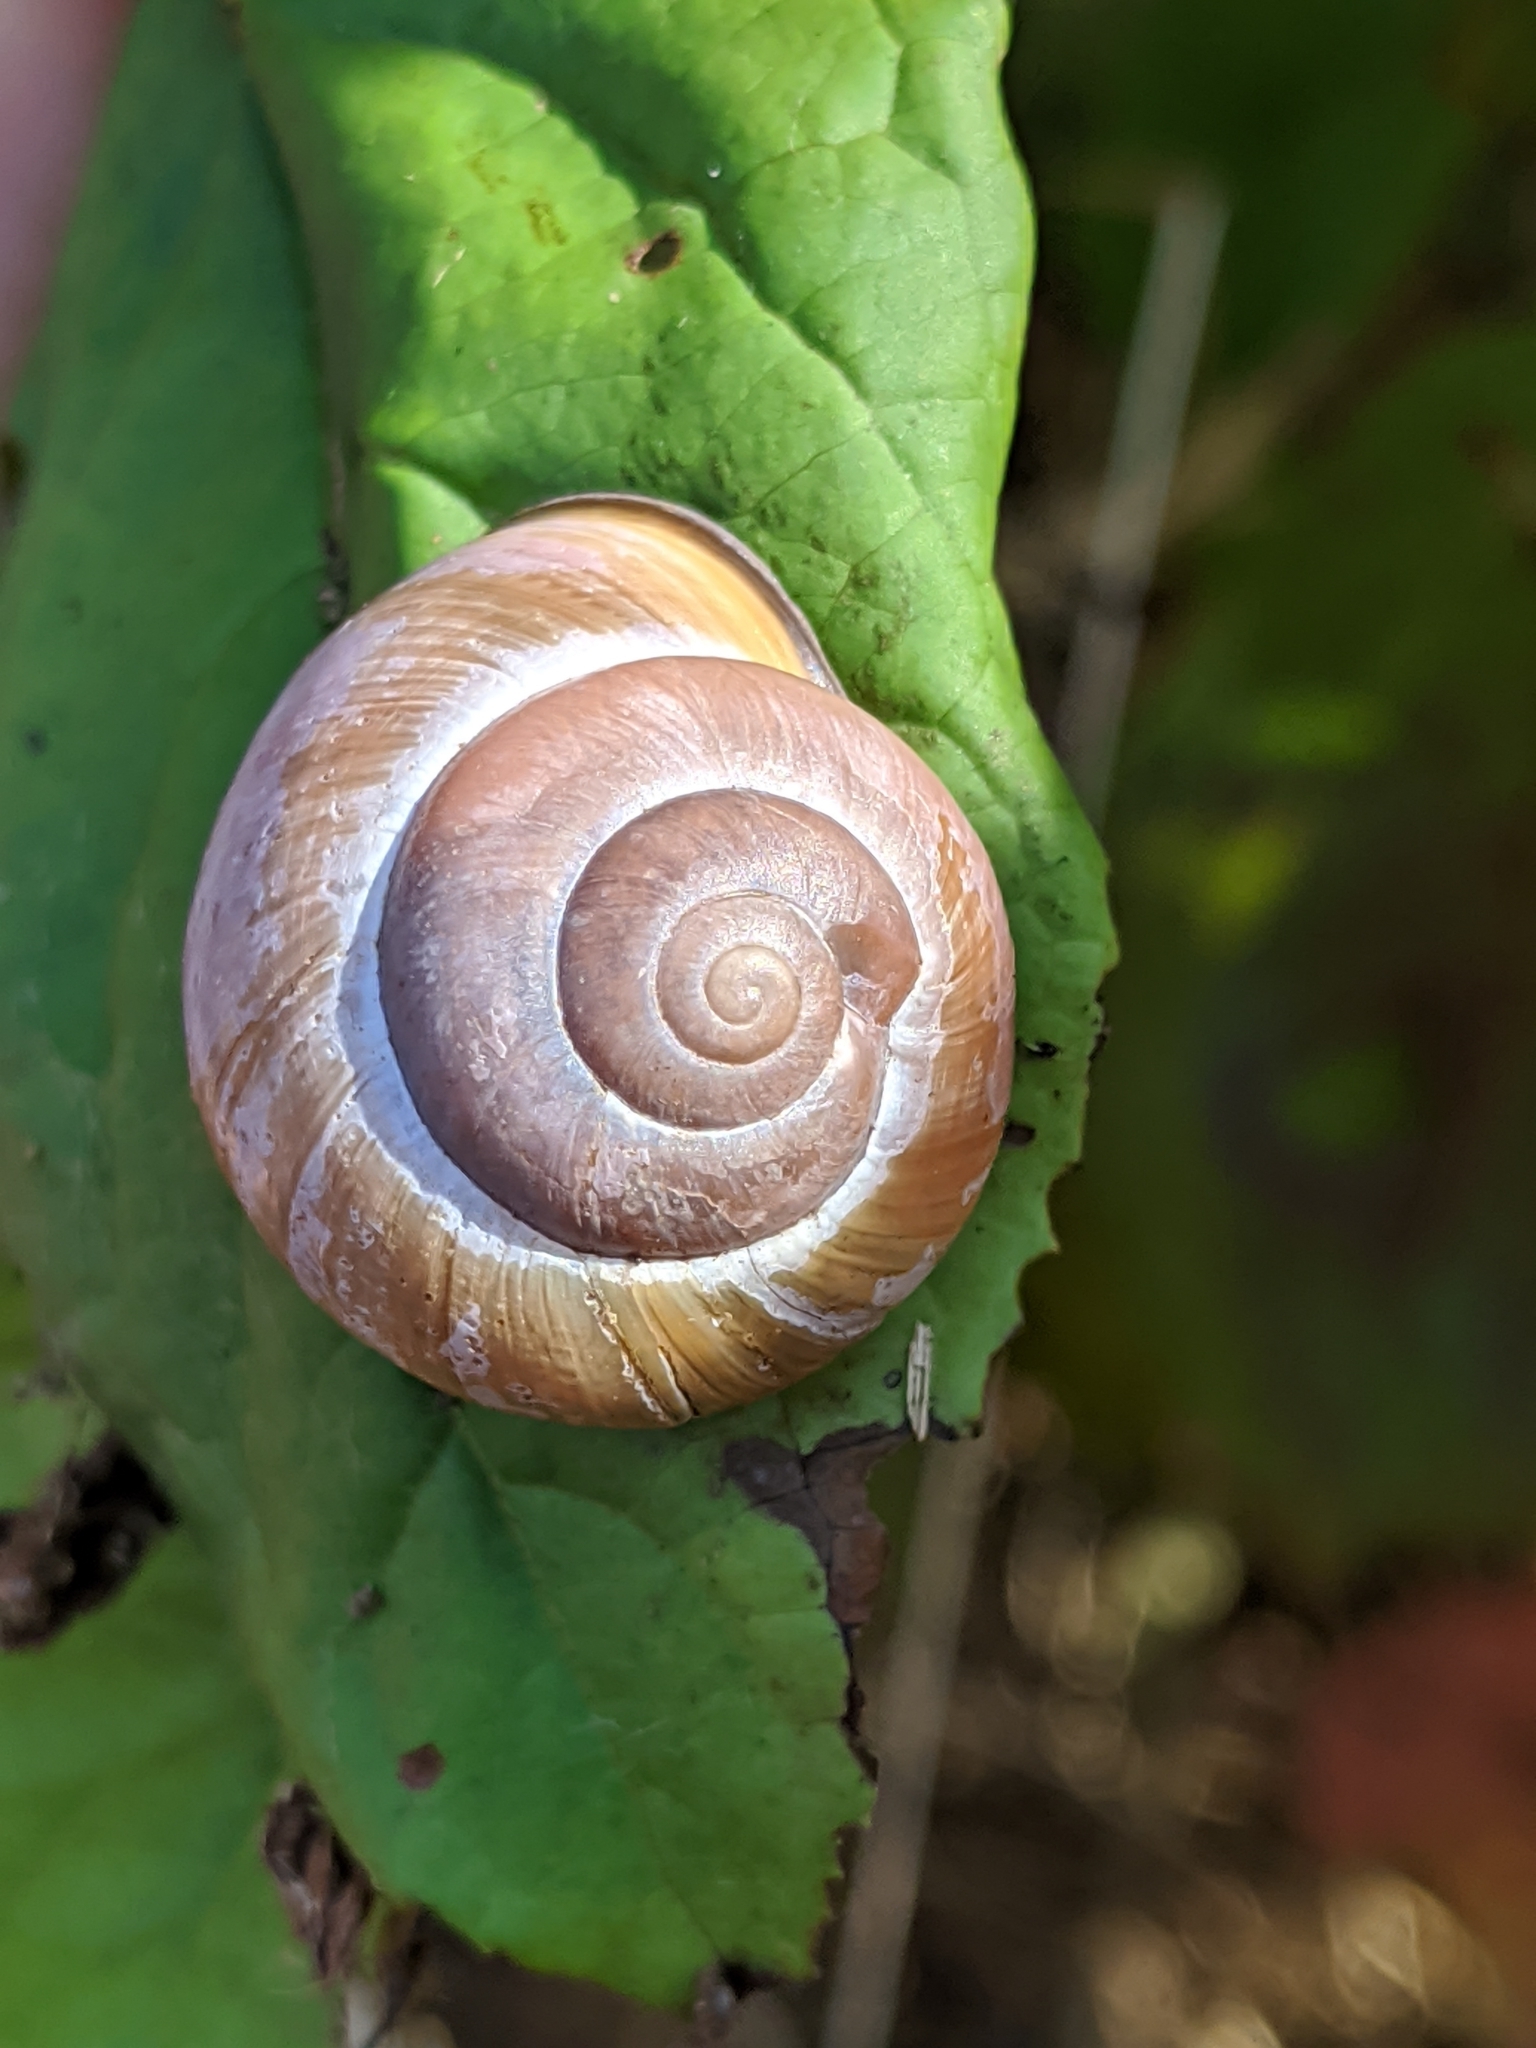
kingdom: Animalia
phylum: Mollusca
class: Gastropoda
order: Stylommatophora
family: Helicidae
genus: Cepaea
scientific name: Cepaea nemoralis
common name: Grovesnail
